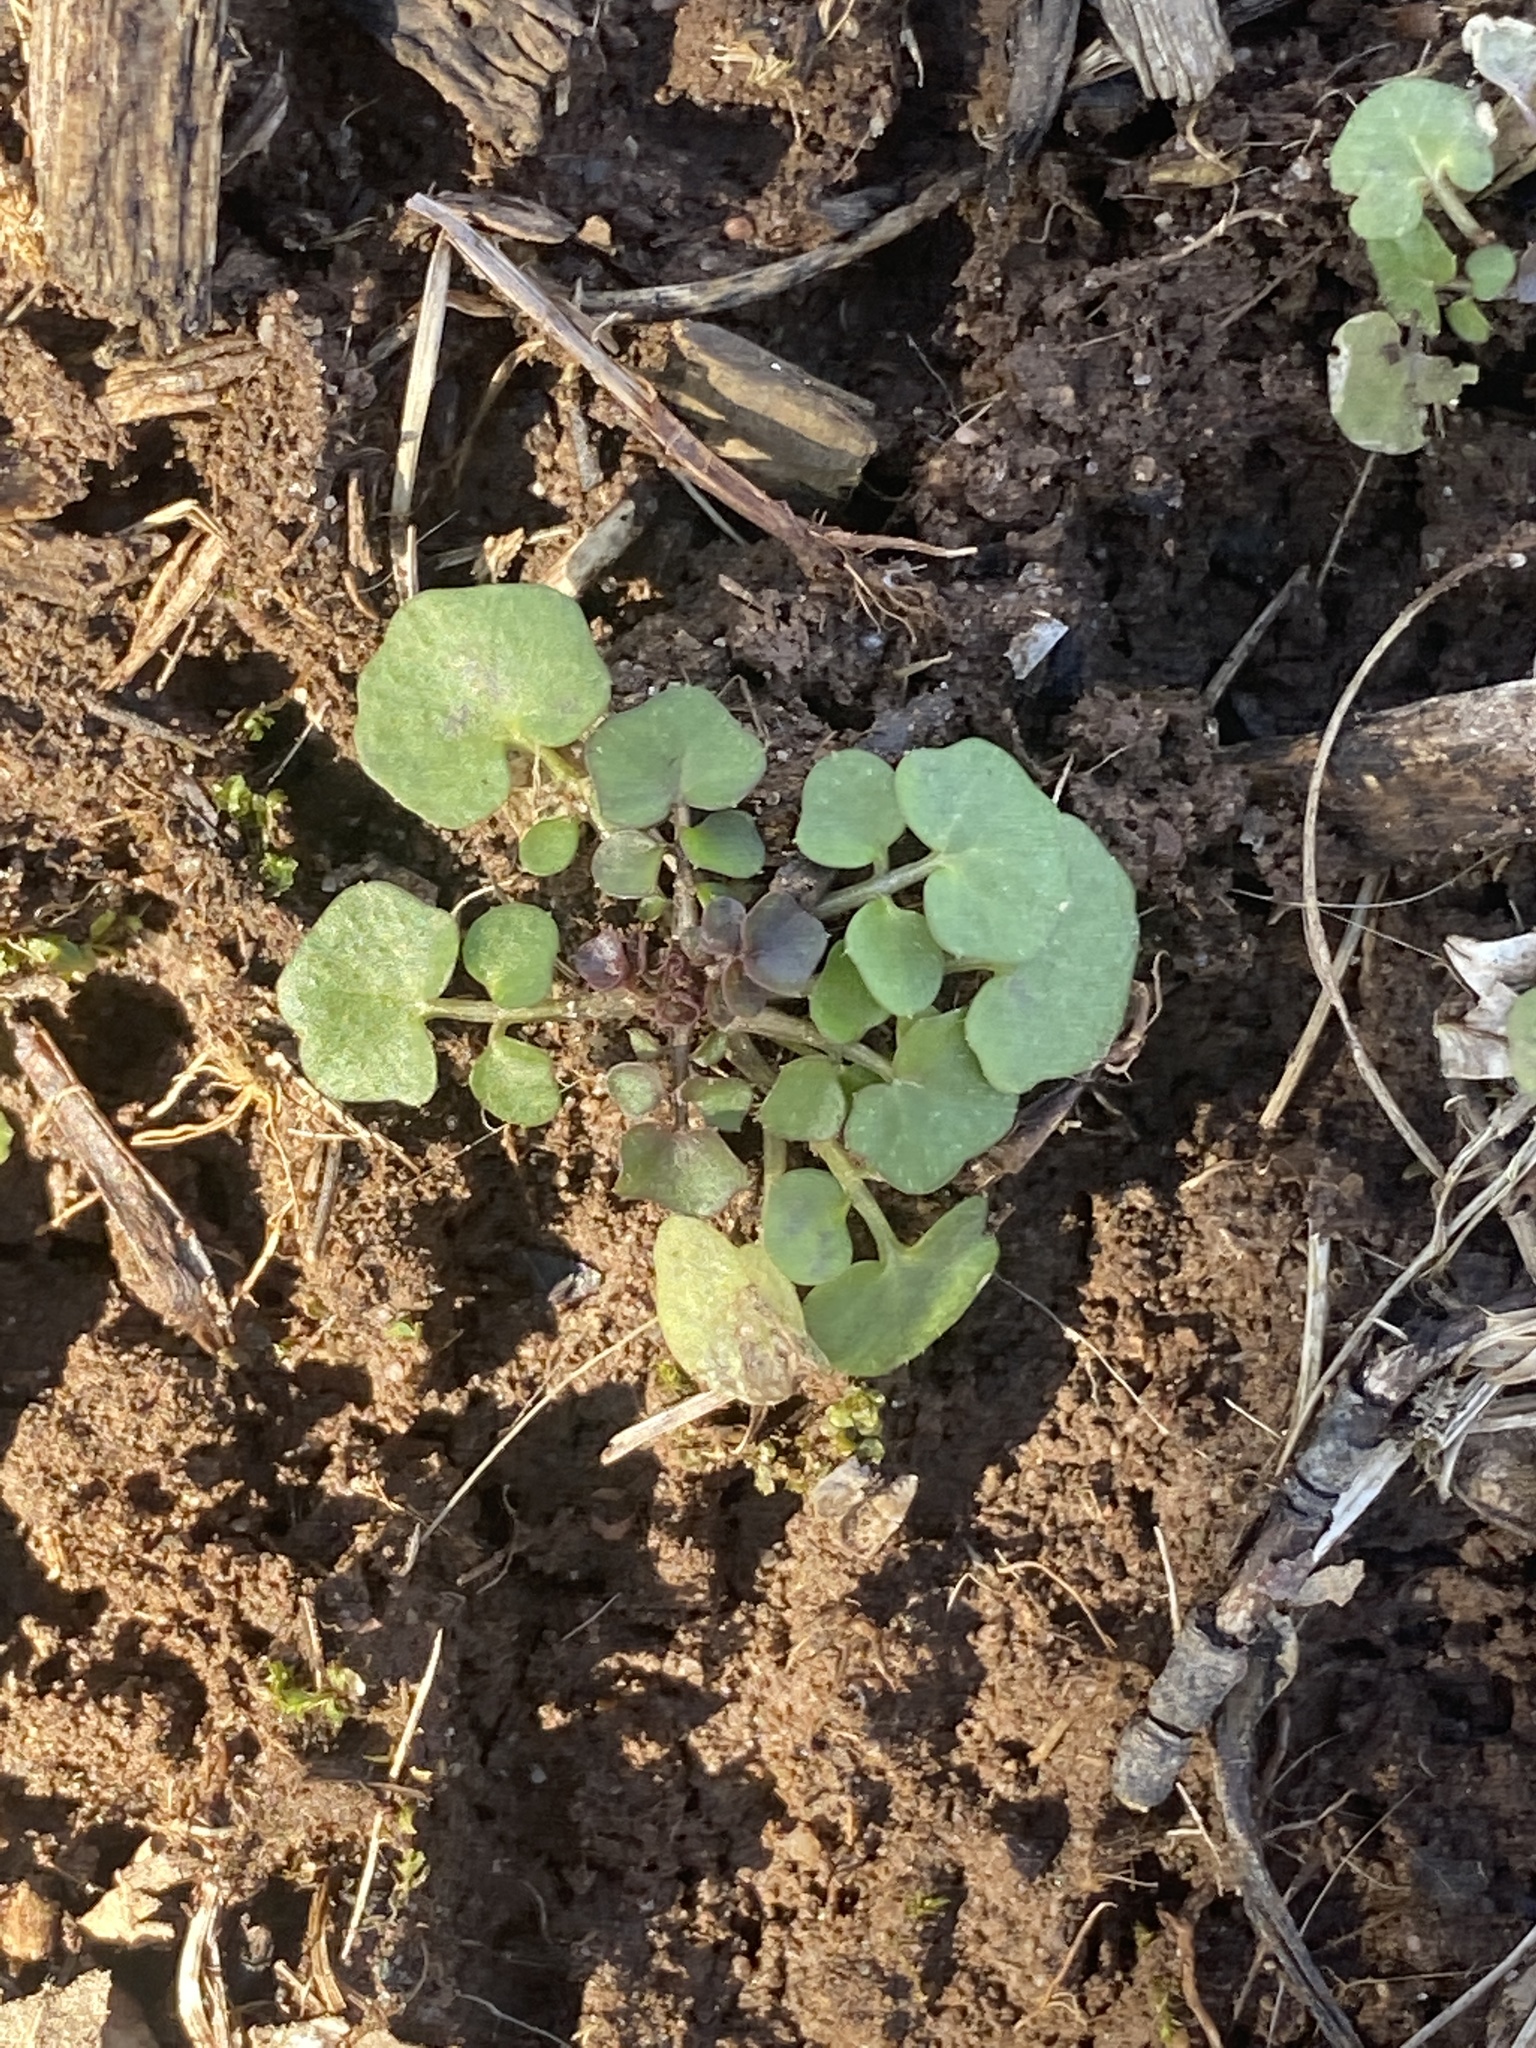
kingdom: Plantae
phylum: Tracheophyta
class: Magnoliopsida
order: Brassicales
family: Brassicaceae
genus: Cardamine
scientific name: Cardamine hirsuta
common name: Hairy bittercress
